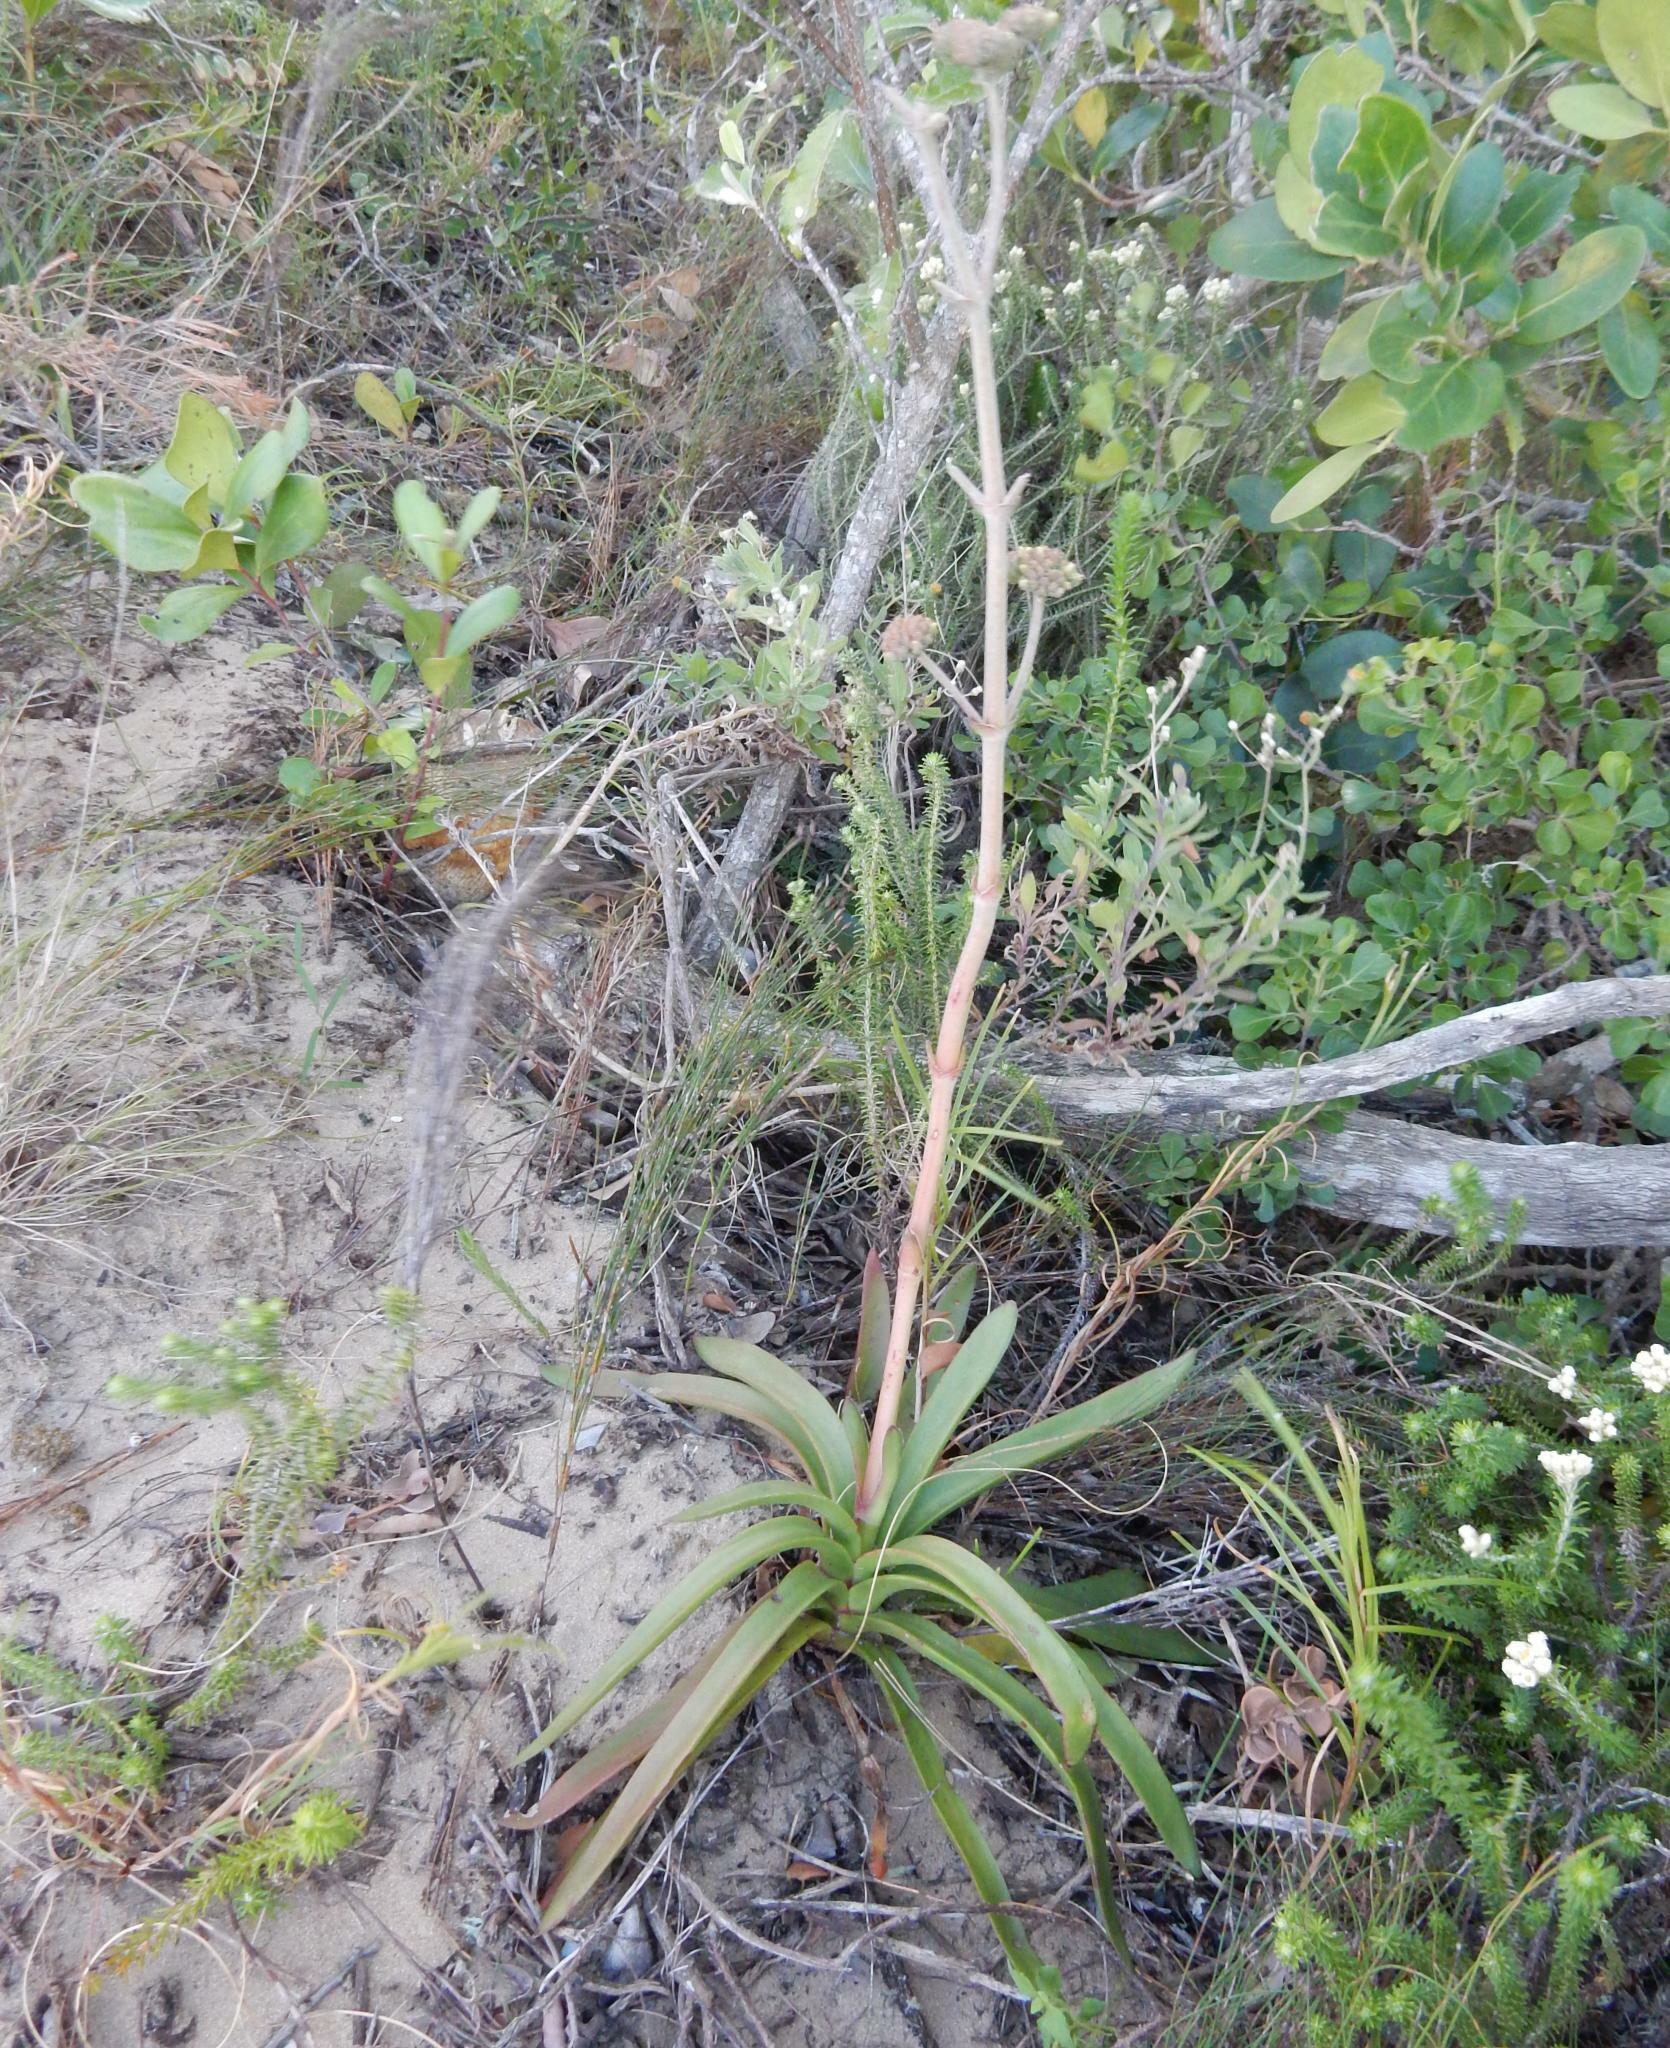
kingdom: Plantae
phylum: Tracheophyta
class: Magnoliopsida
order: Saxifragales
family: Crassulaceae
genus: Crassula
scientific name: Crassula nudicaulis
